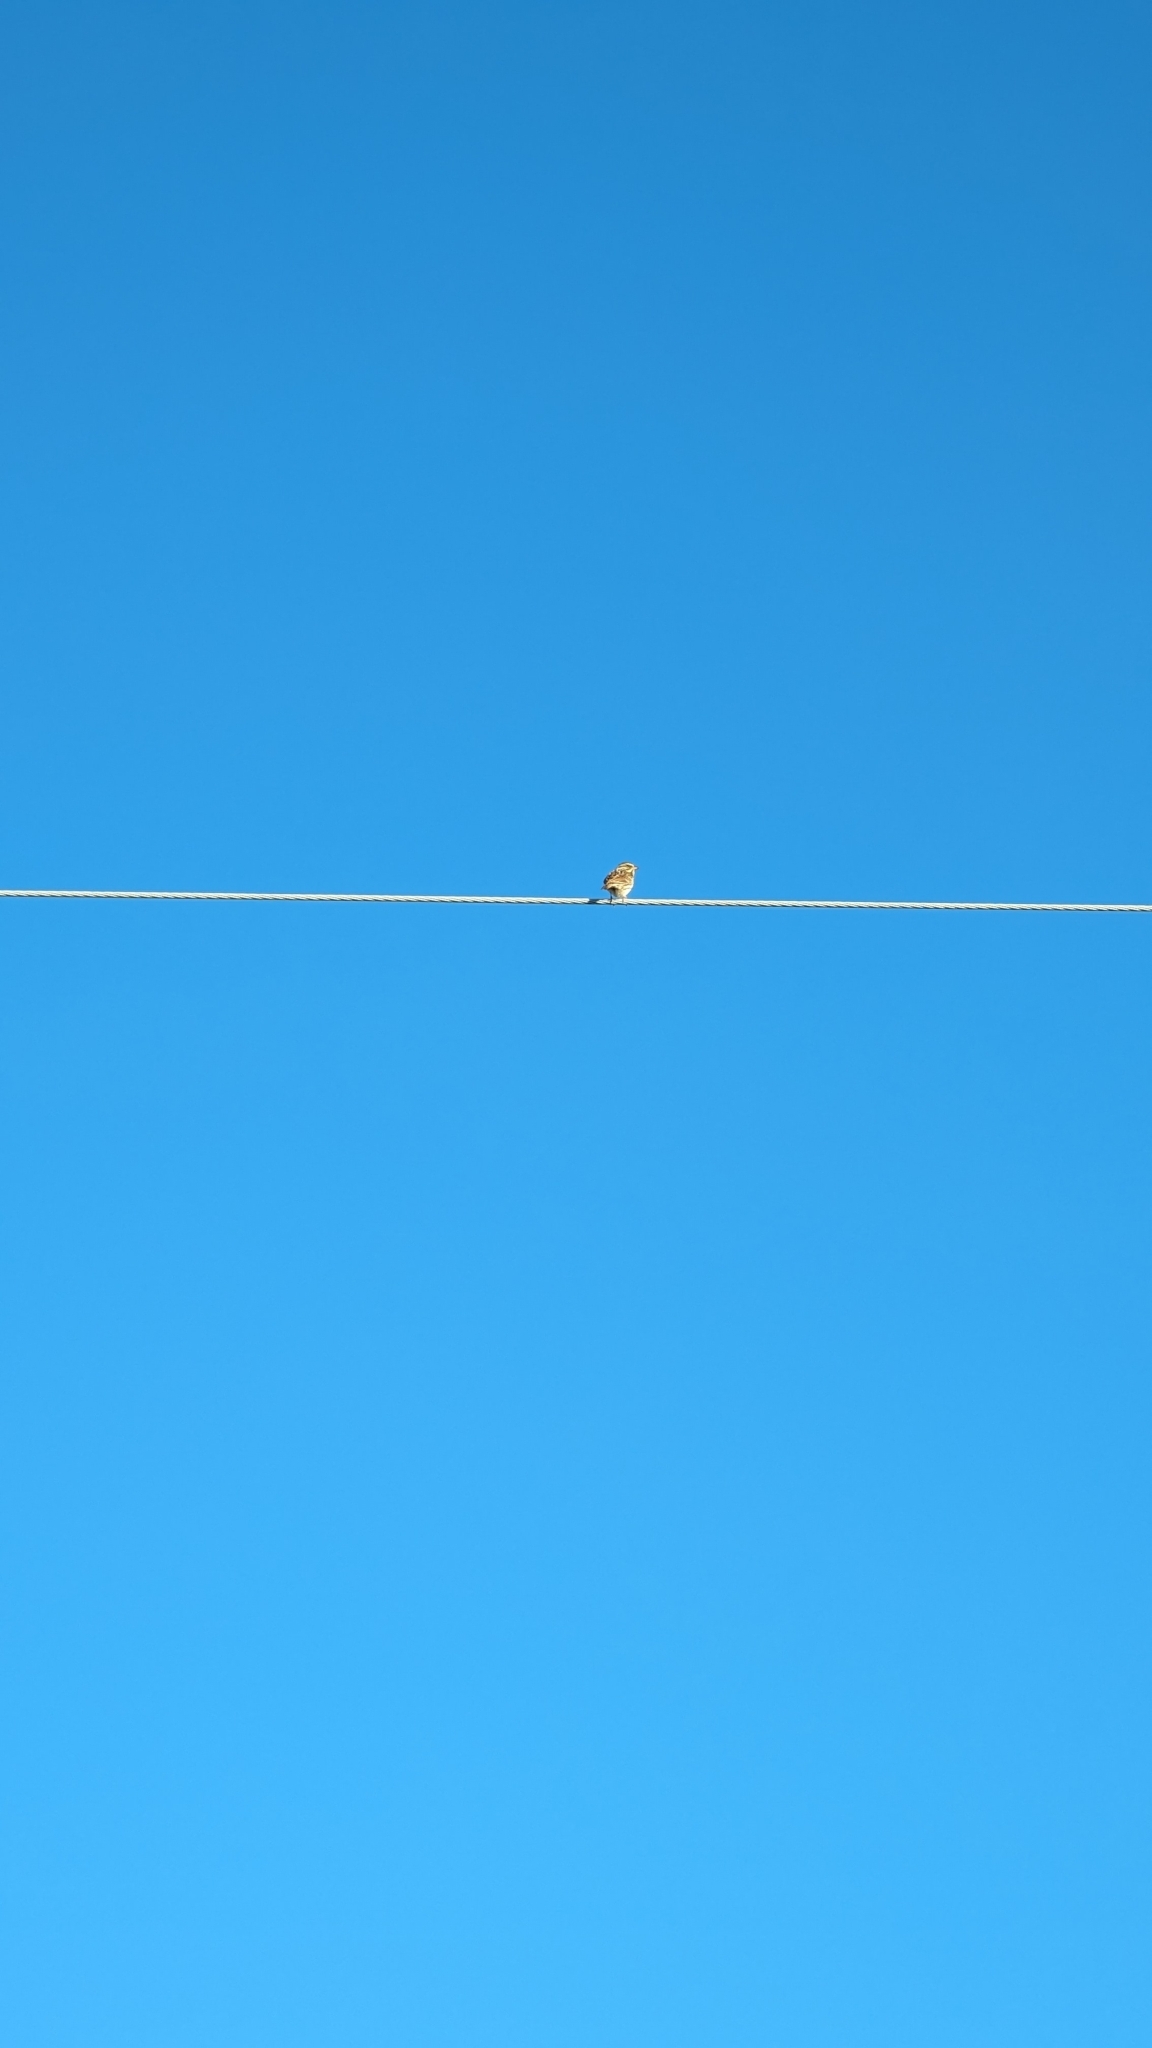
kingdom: Animalia
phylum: Chordata
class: Aves
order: Passeriformes
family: Passerellidae
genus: Passerculus
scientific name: Passerculus sandwichensis
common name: Savannah sparrow
